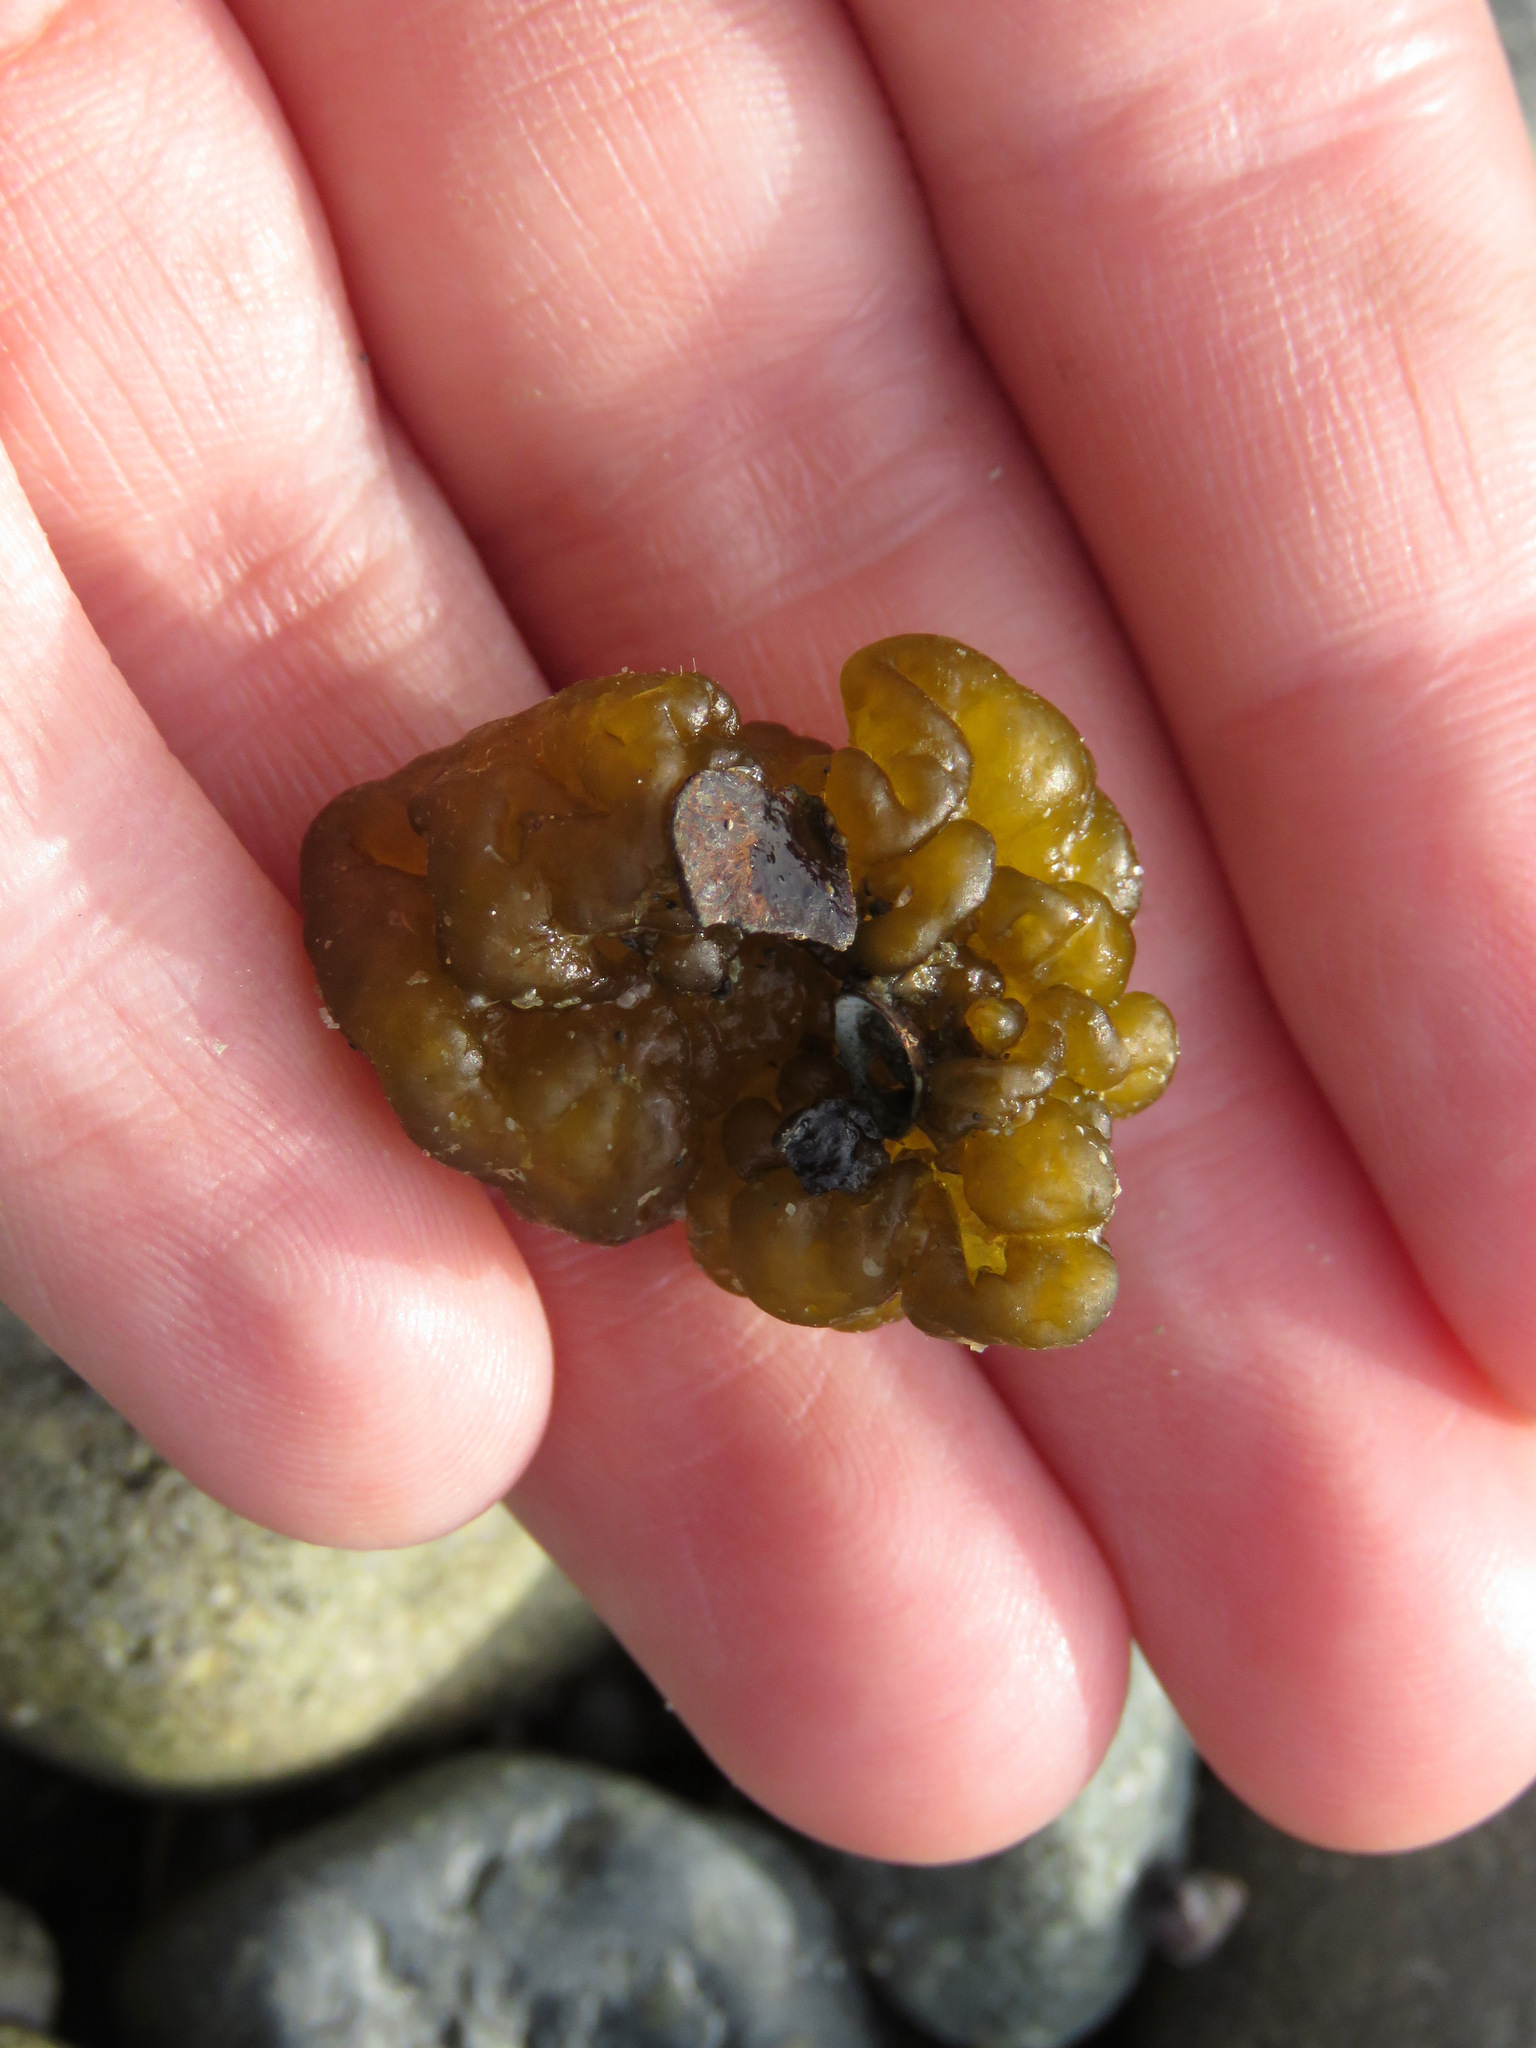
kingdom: Chromista
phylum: Ochrophyta
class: Phaeophyceae
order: Ectocarpales
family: Chordariaceae
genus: Leathesia
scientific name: Leathesia marina
